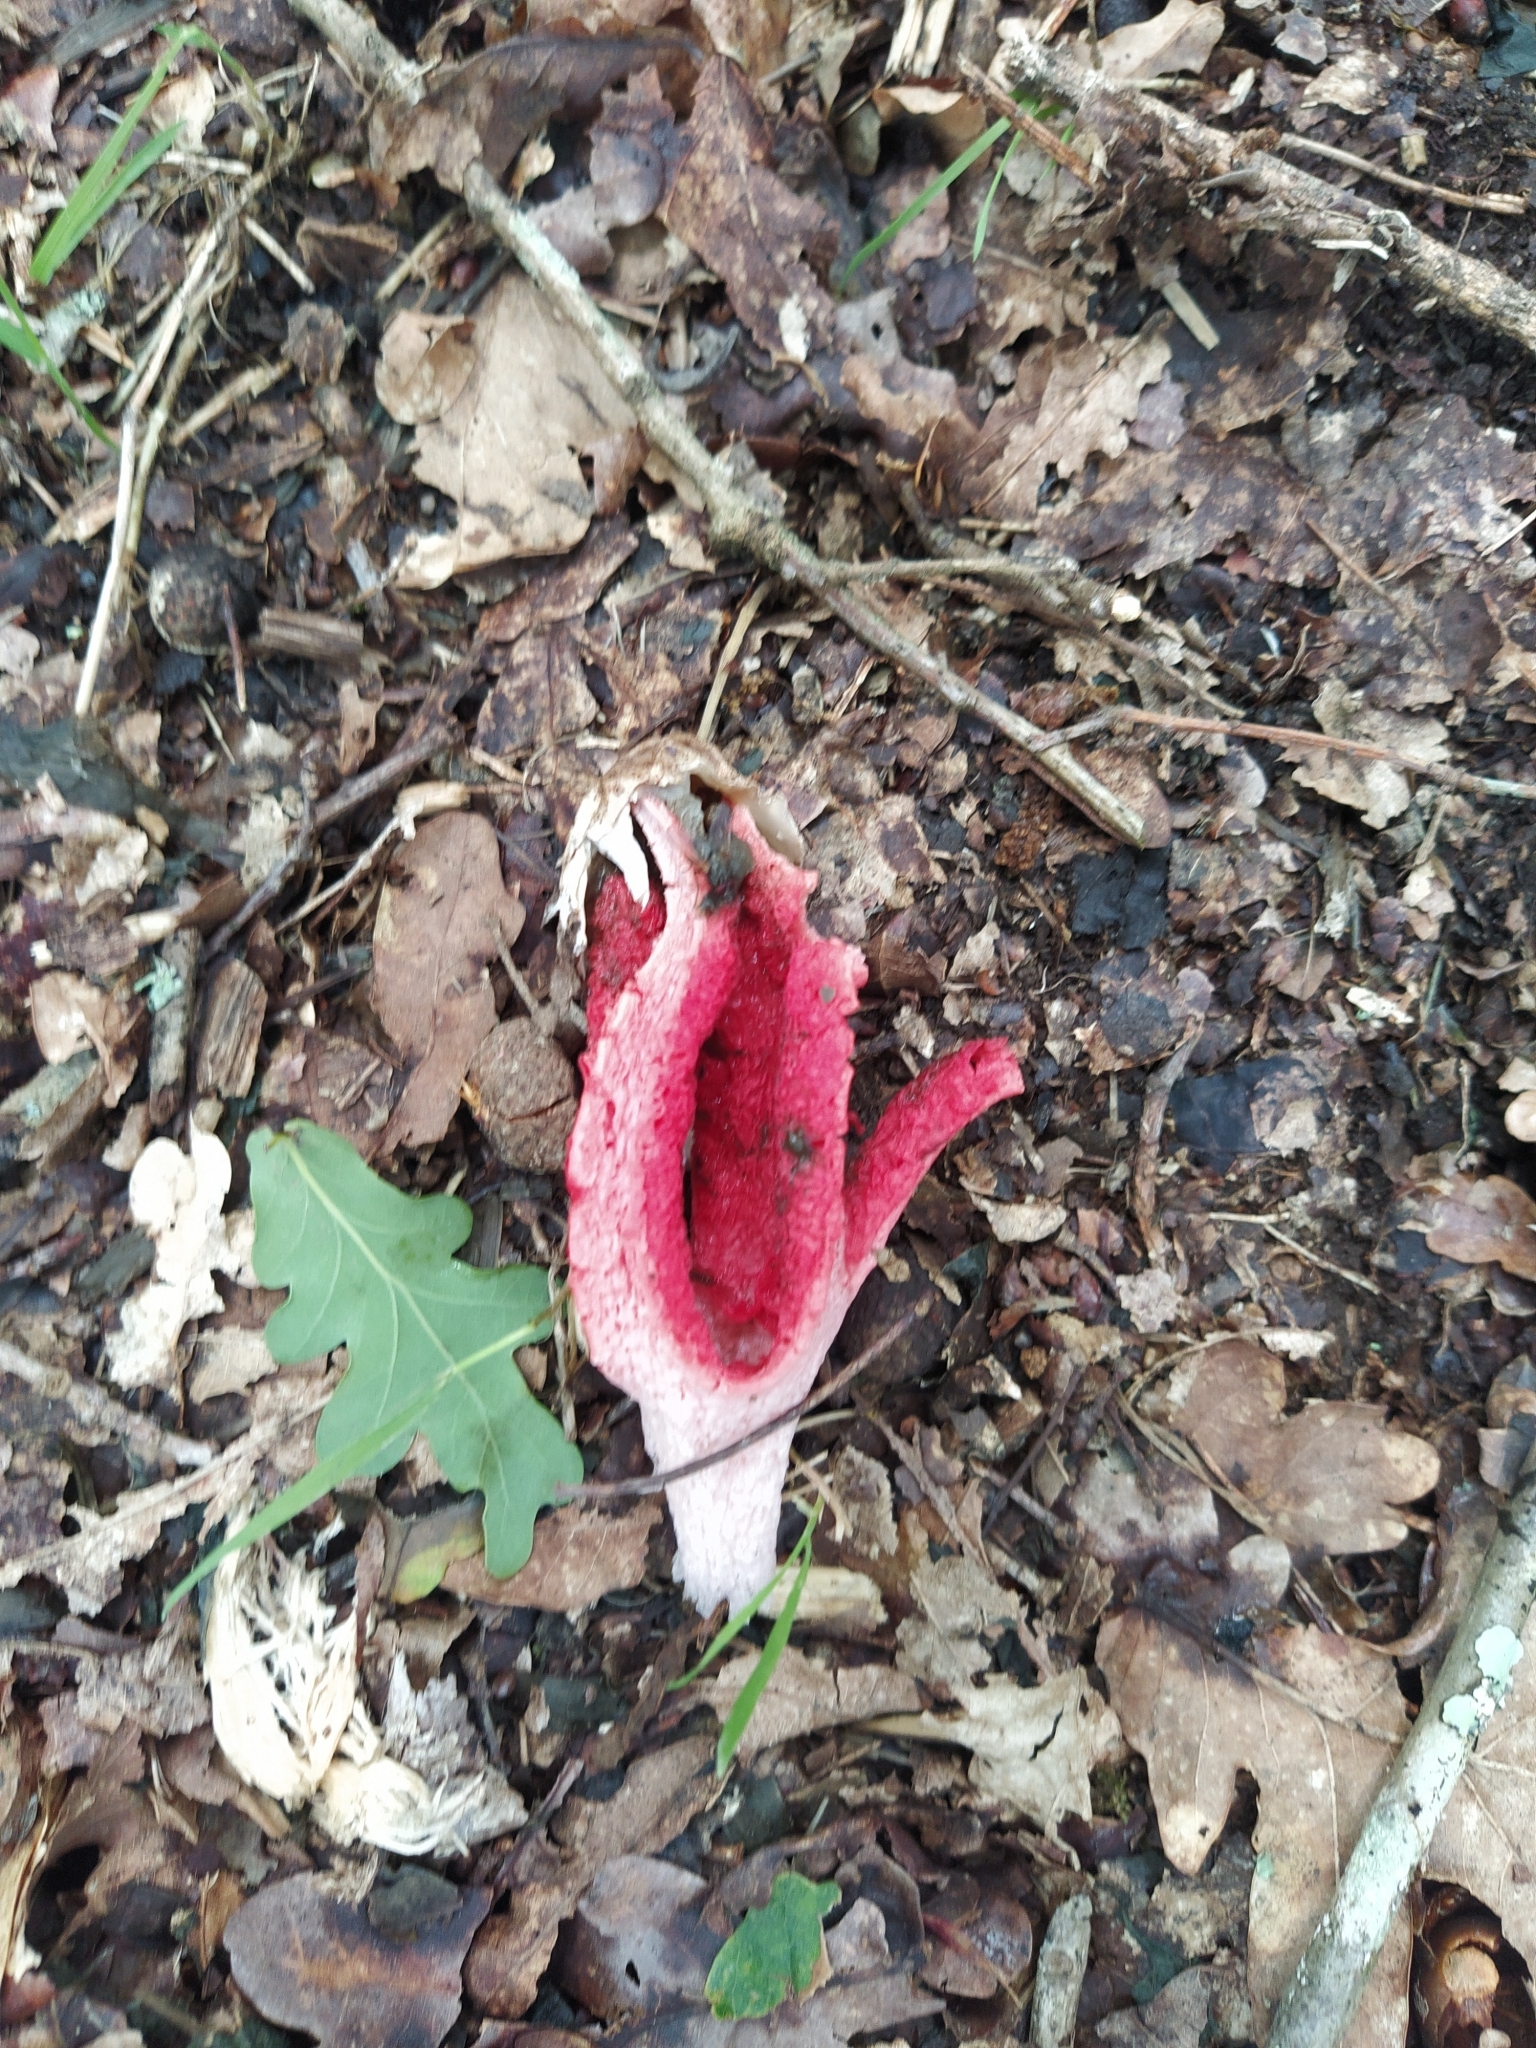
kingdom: Fungi
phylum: Basidiomycota
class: Agaricomycetes
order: Phallales
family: Phallaceae
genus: Clathrus
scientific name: Clathrus archeri
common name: Devil's fingers
